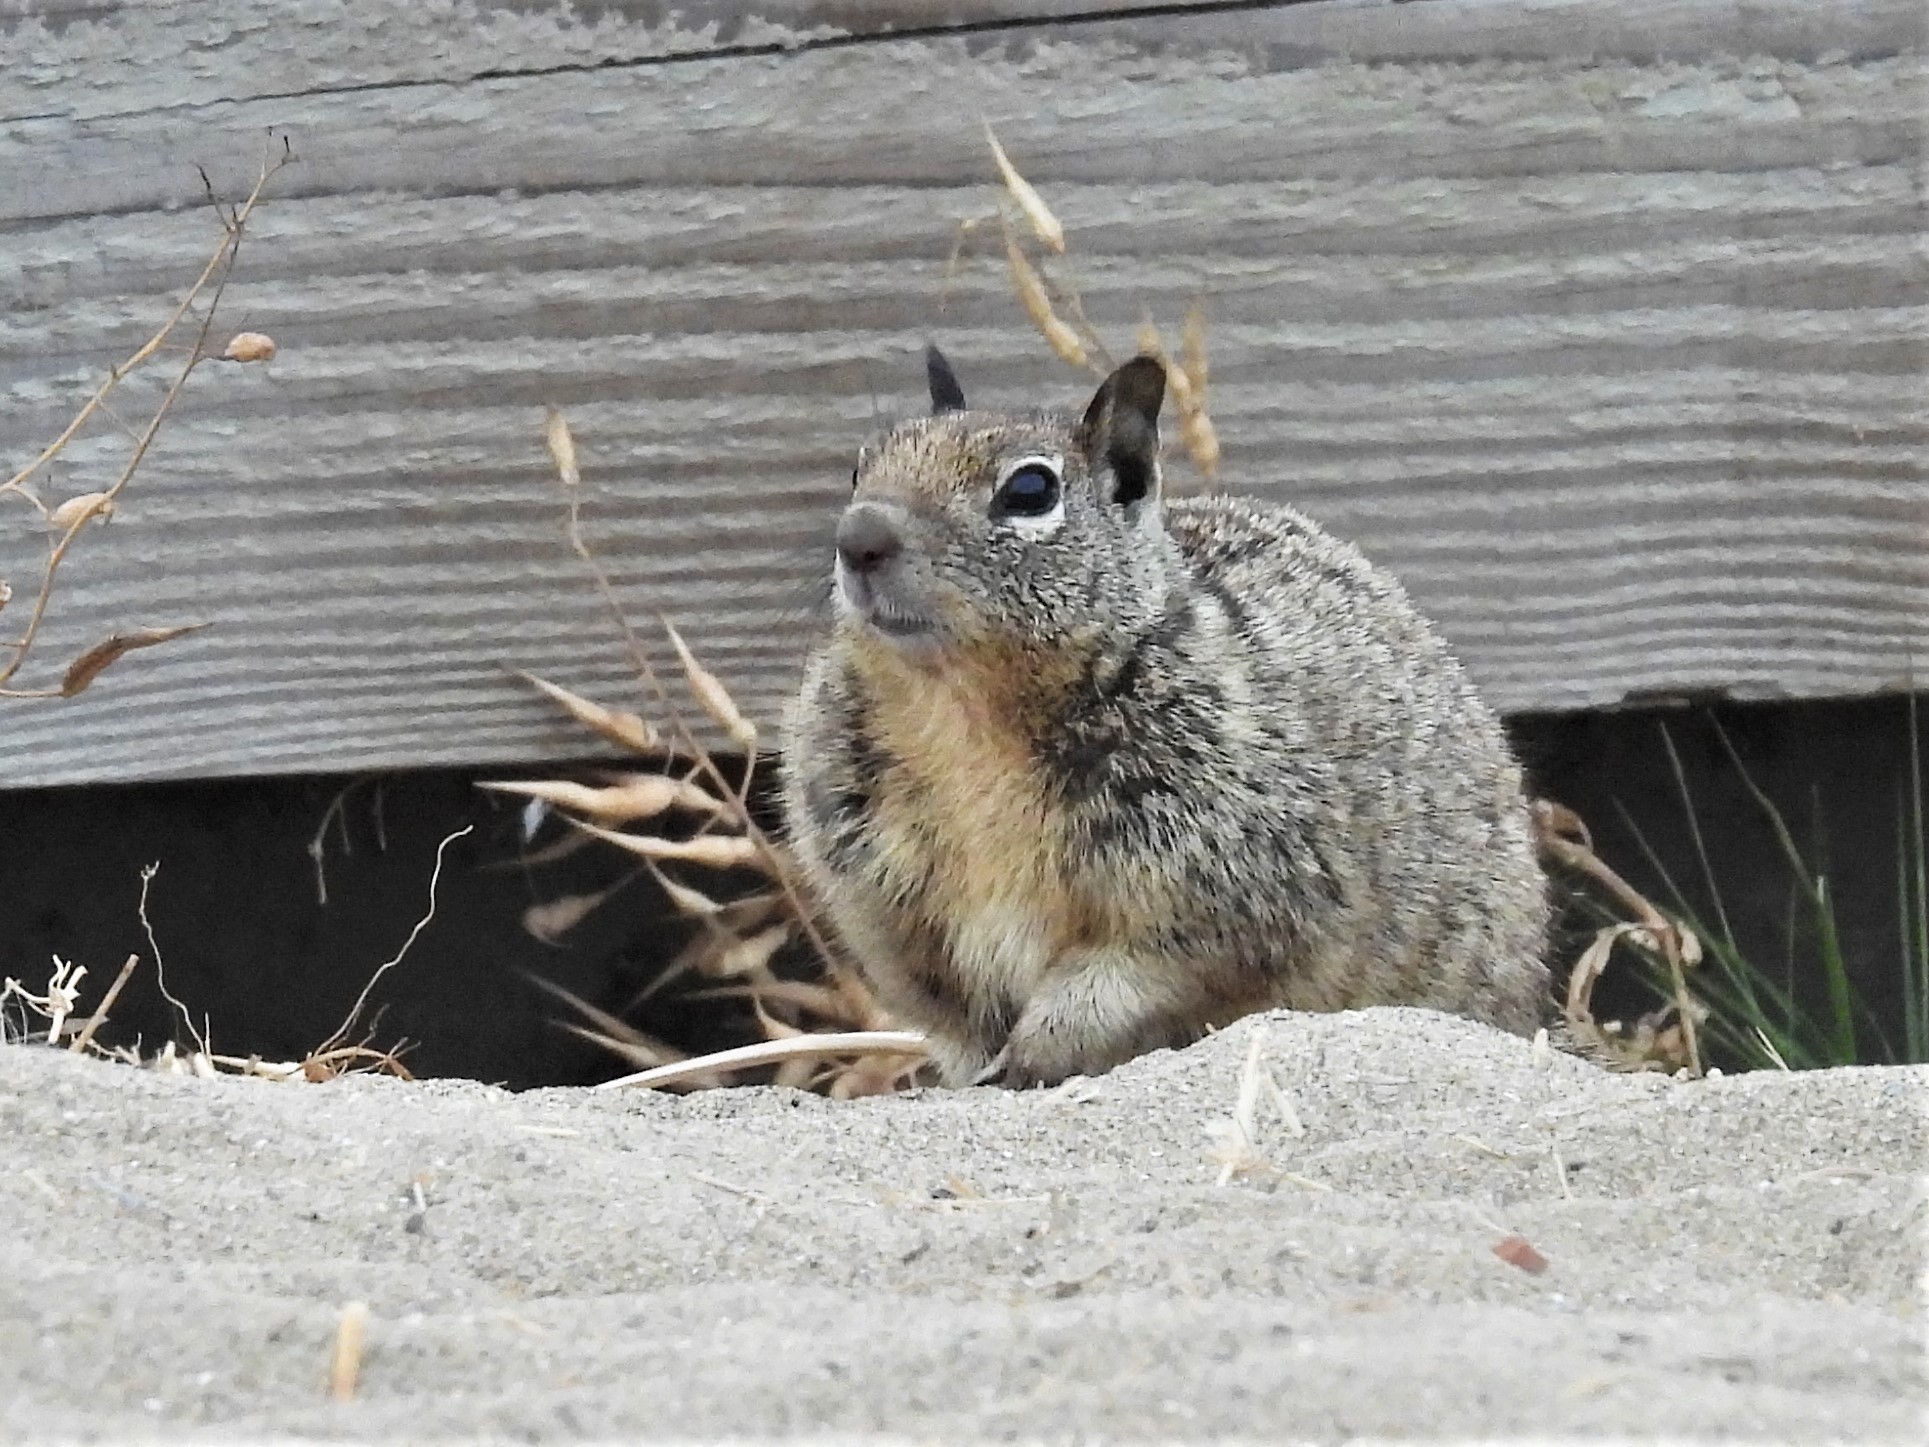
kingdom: Animalia
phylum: Chordata
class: Mammalia
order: Rodentia
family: Sciuridae
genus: Otospermophilus
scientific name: Otospermophilus beecheyi
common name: California ground squirrel
